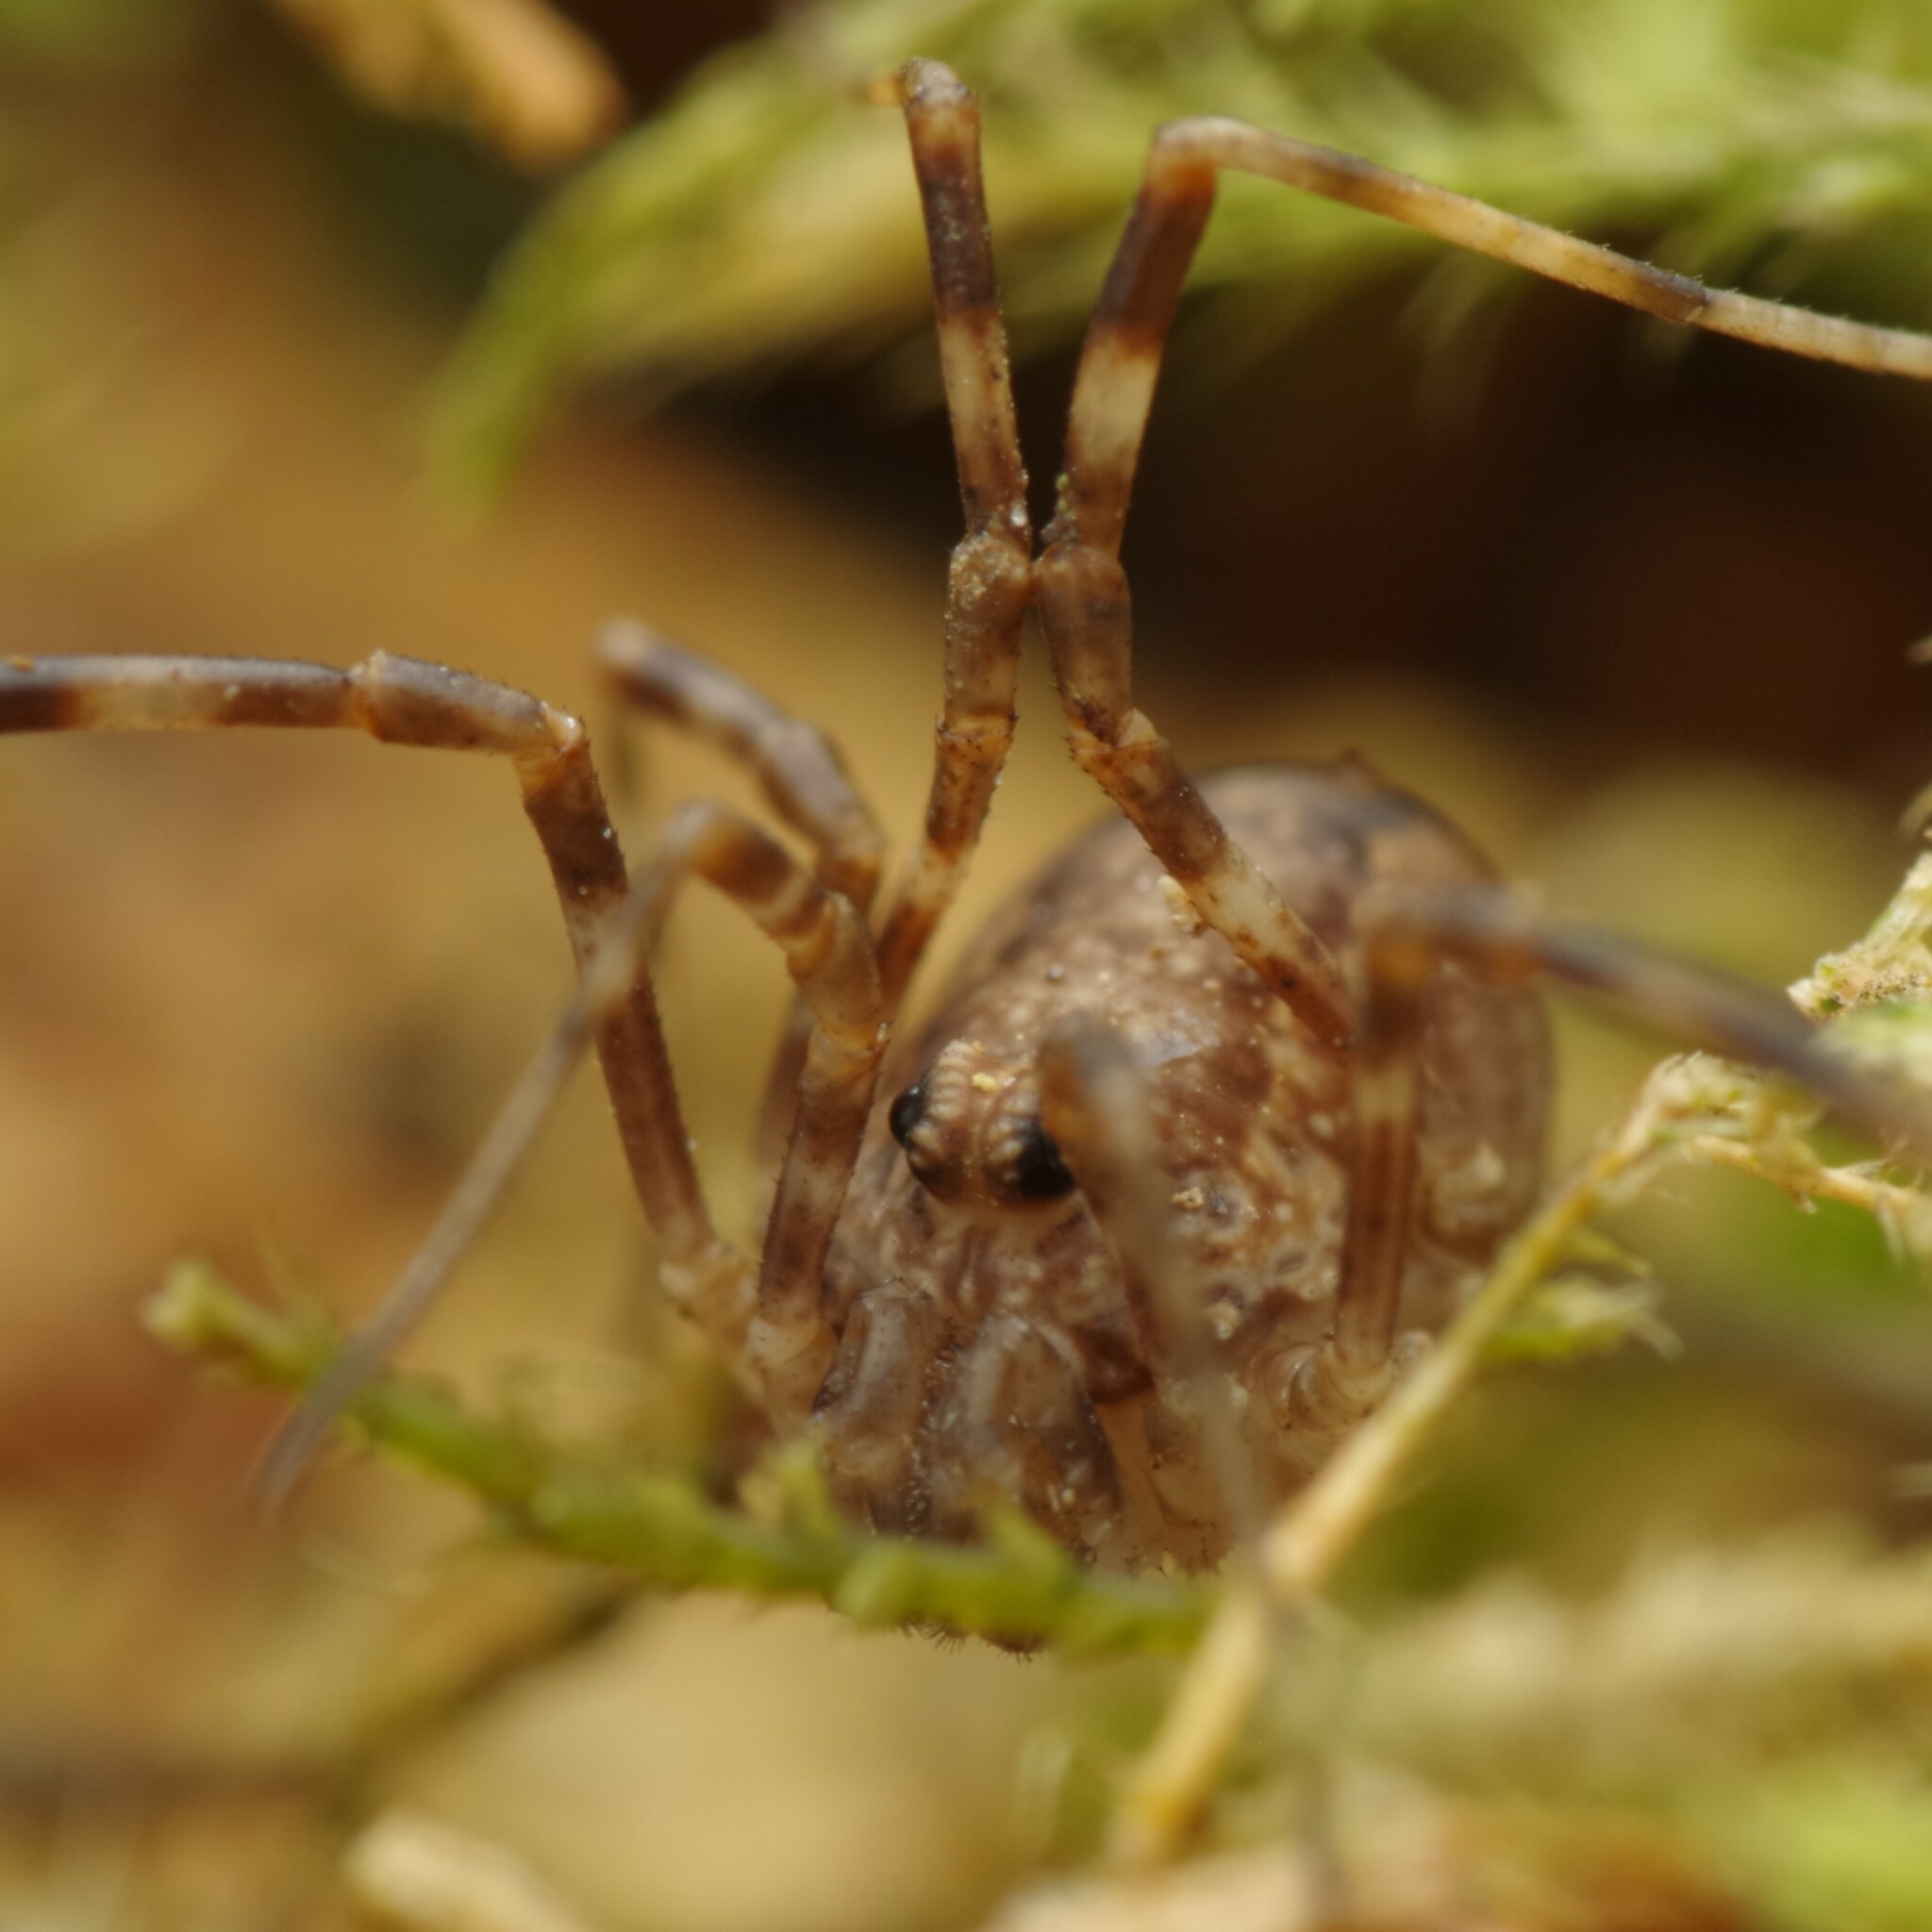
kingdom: Animalia
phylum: Arthropoda
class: Arachnida
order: Opiliones
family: Phalangiidae
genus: Rilaena
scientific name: Rilaena triangularis
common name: Spring harvestman
